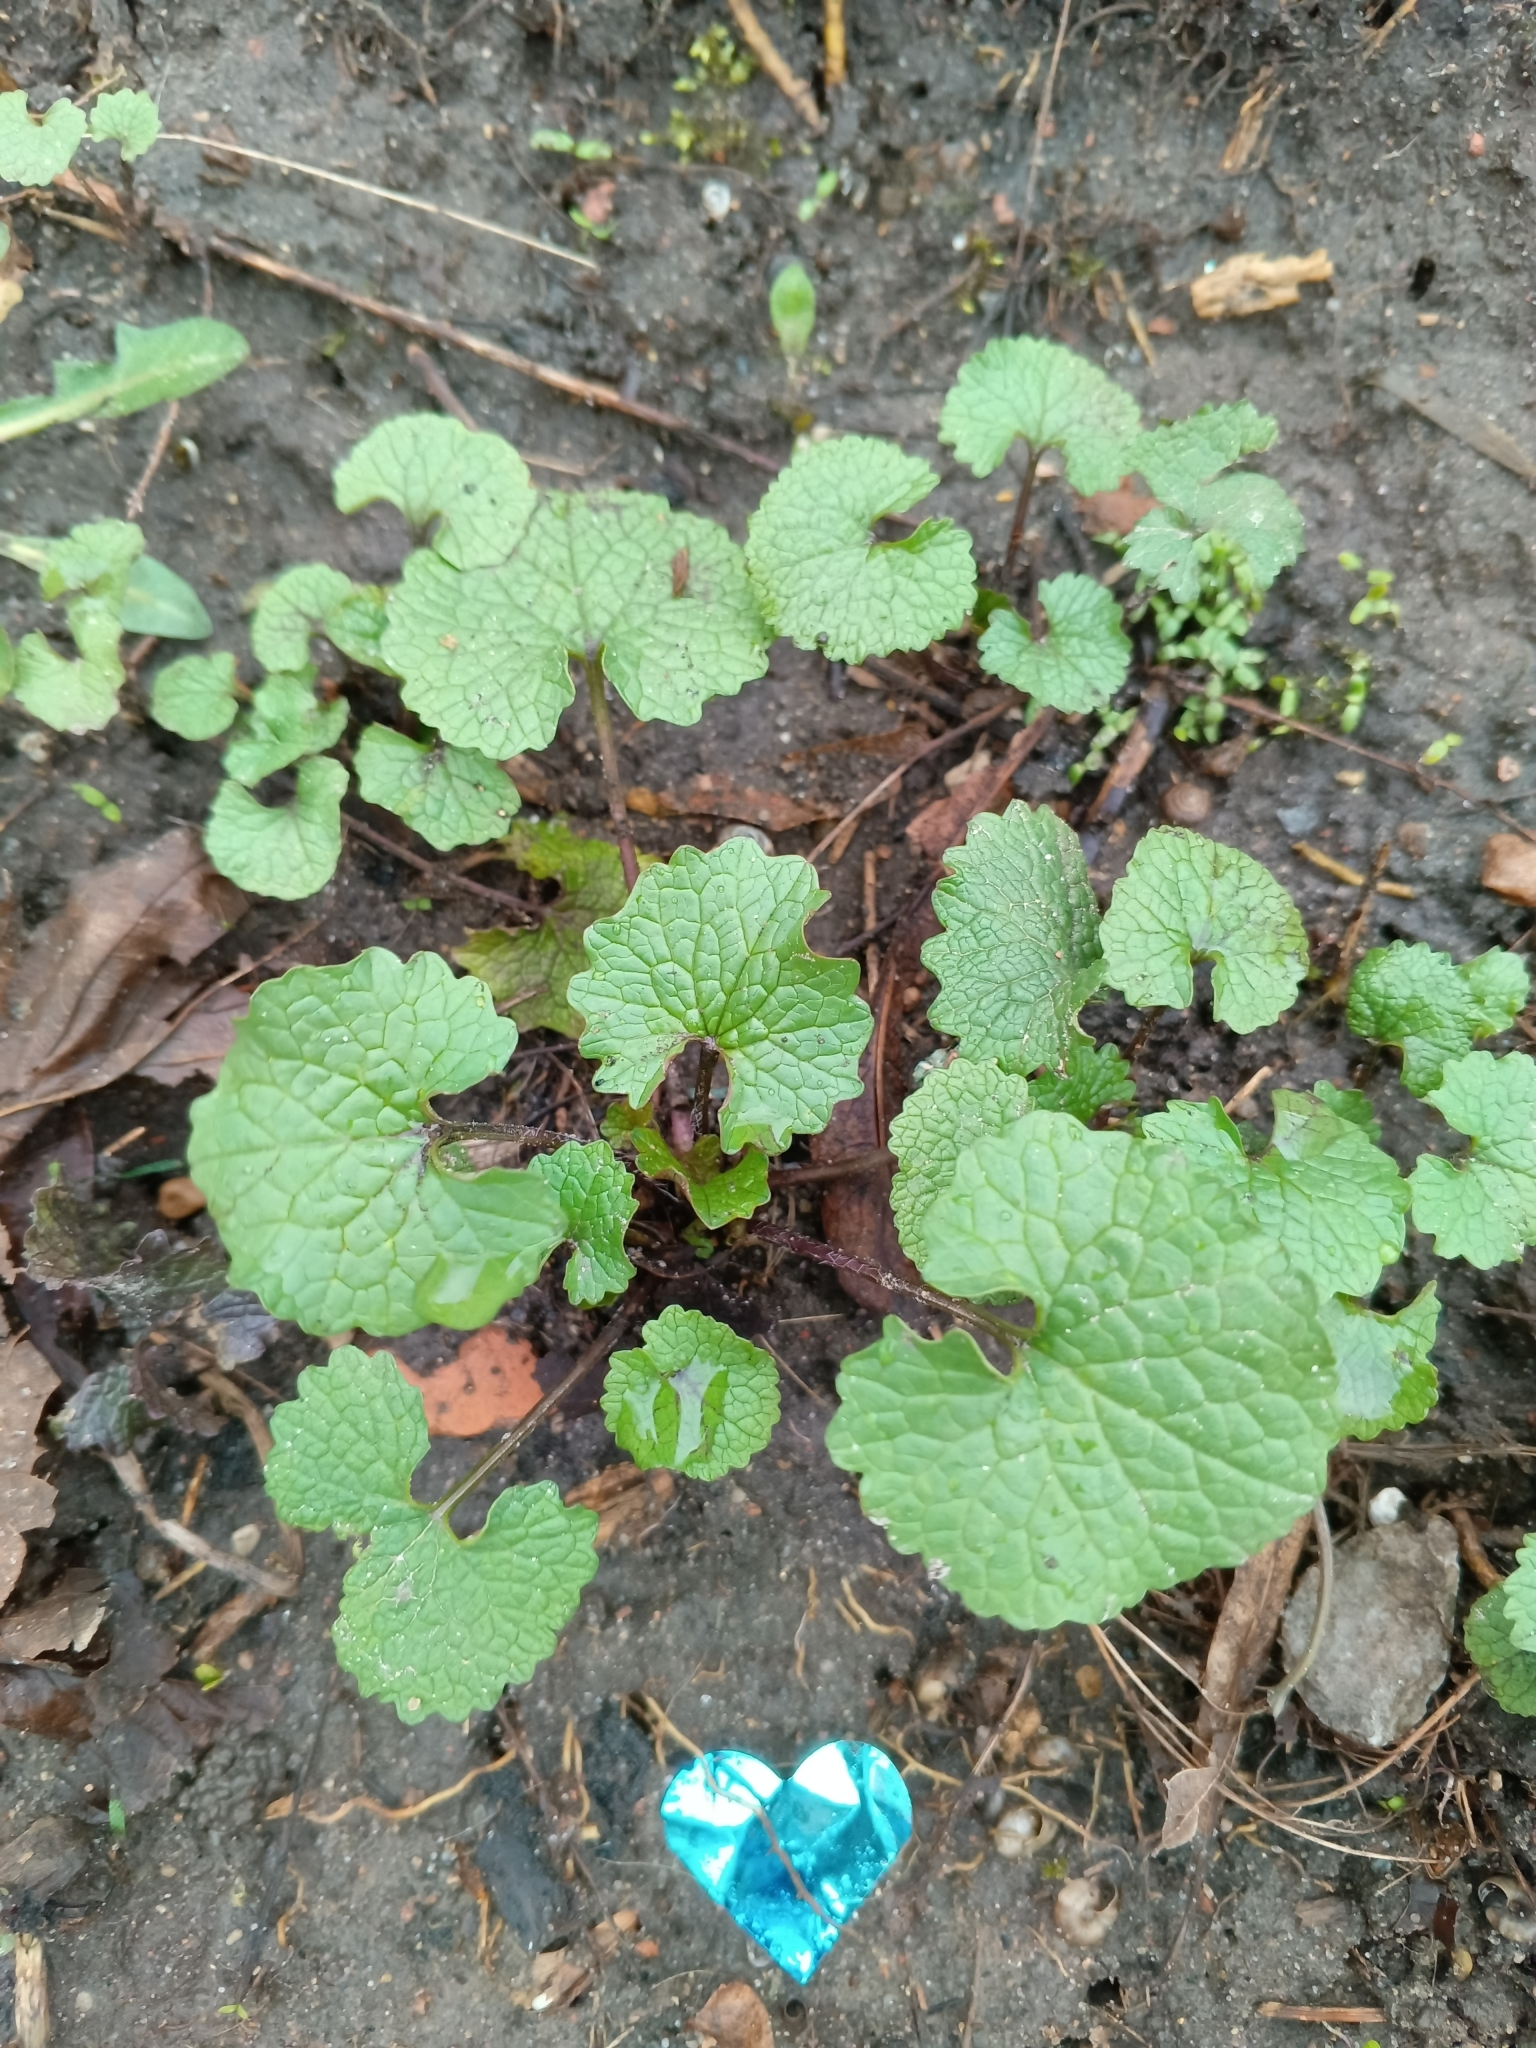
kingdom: Plantae
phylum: Tracheophyta
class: Magnoliopsida
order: Brassicales
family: Brassicaceae
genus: Alliaria
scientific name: Alliaria petiolata
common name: Garlic mustard
